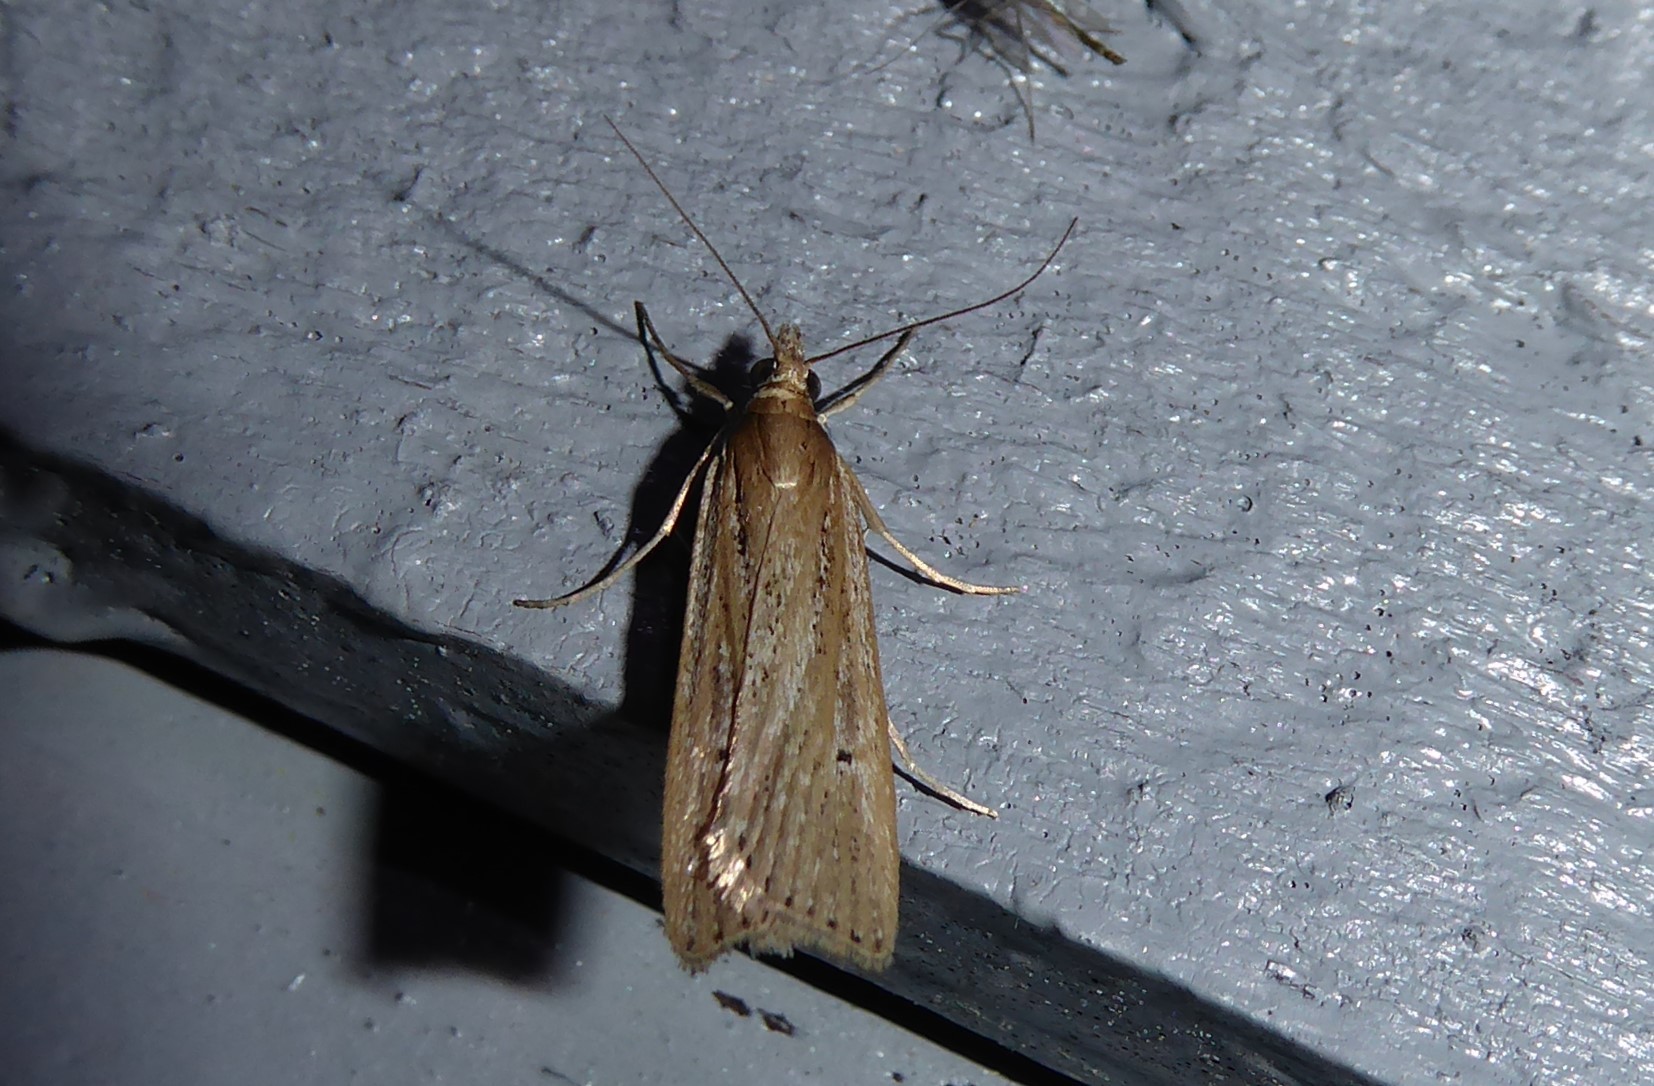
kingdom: Animalia
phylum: Arthropoda
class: Insecta
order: Lepidoptera
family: Crambidae
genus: Eudonia
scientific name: Eudonia sabulosella
